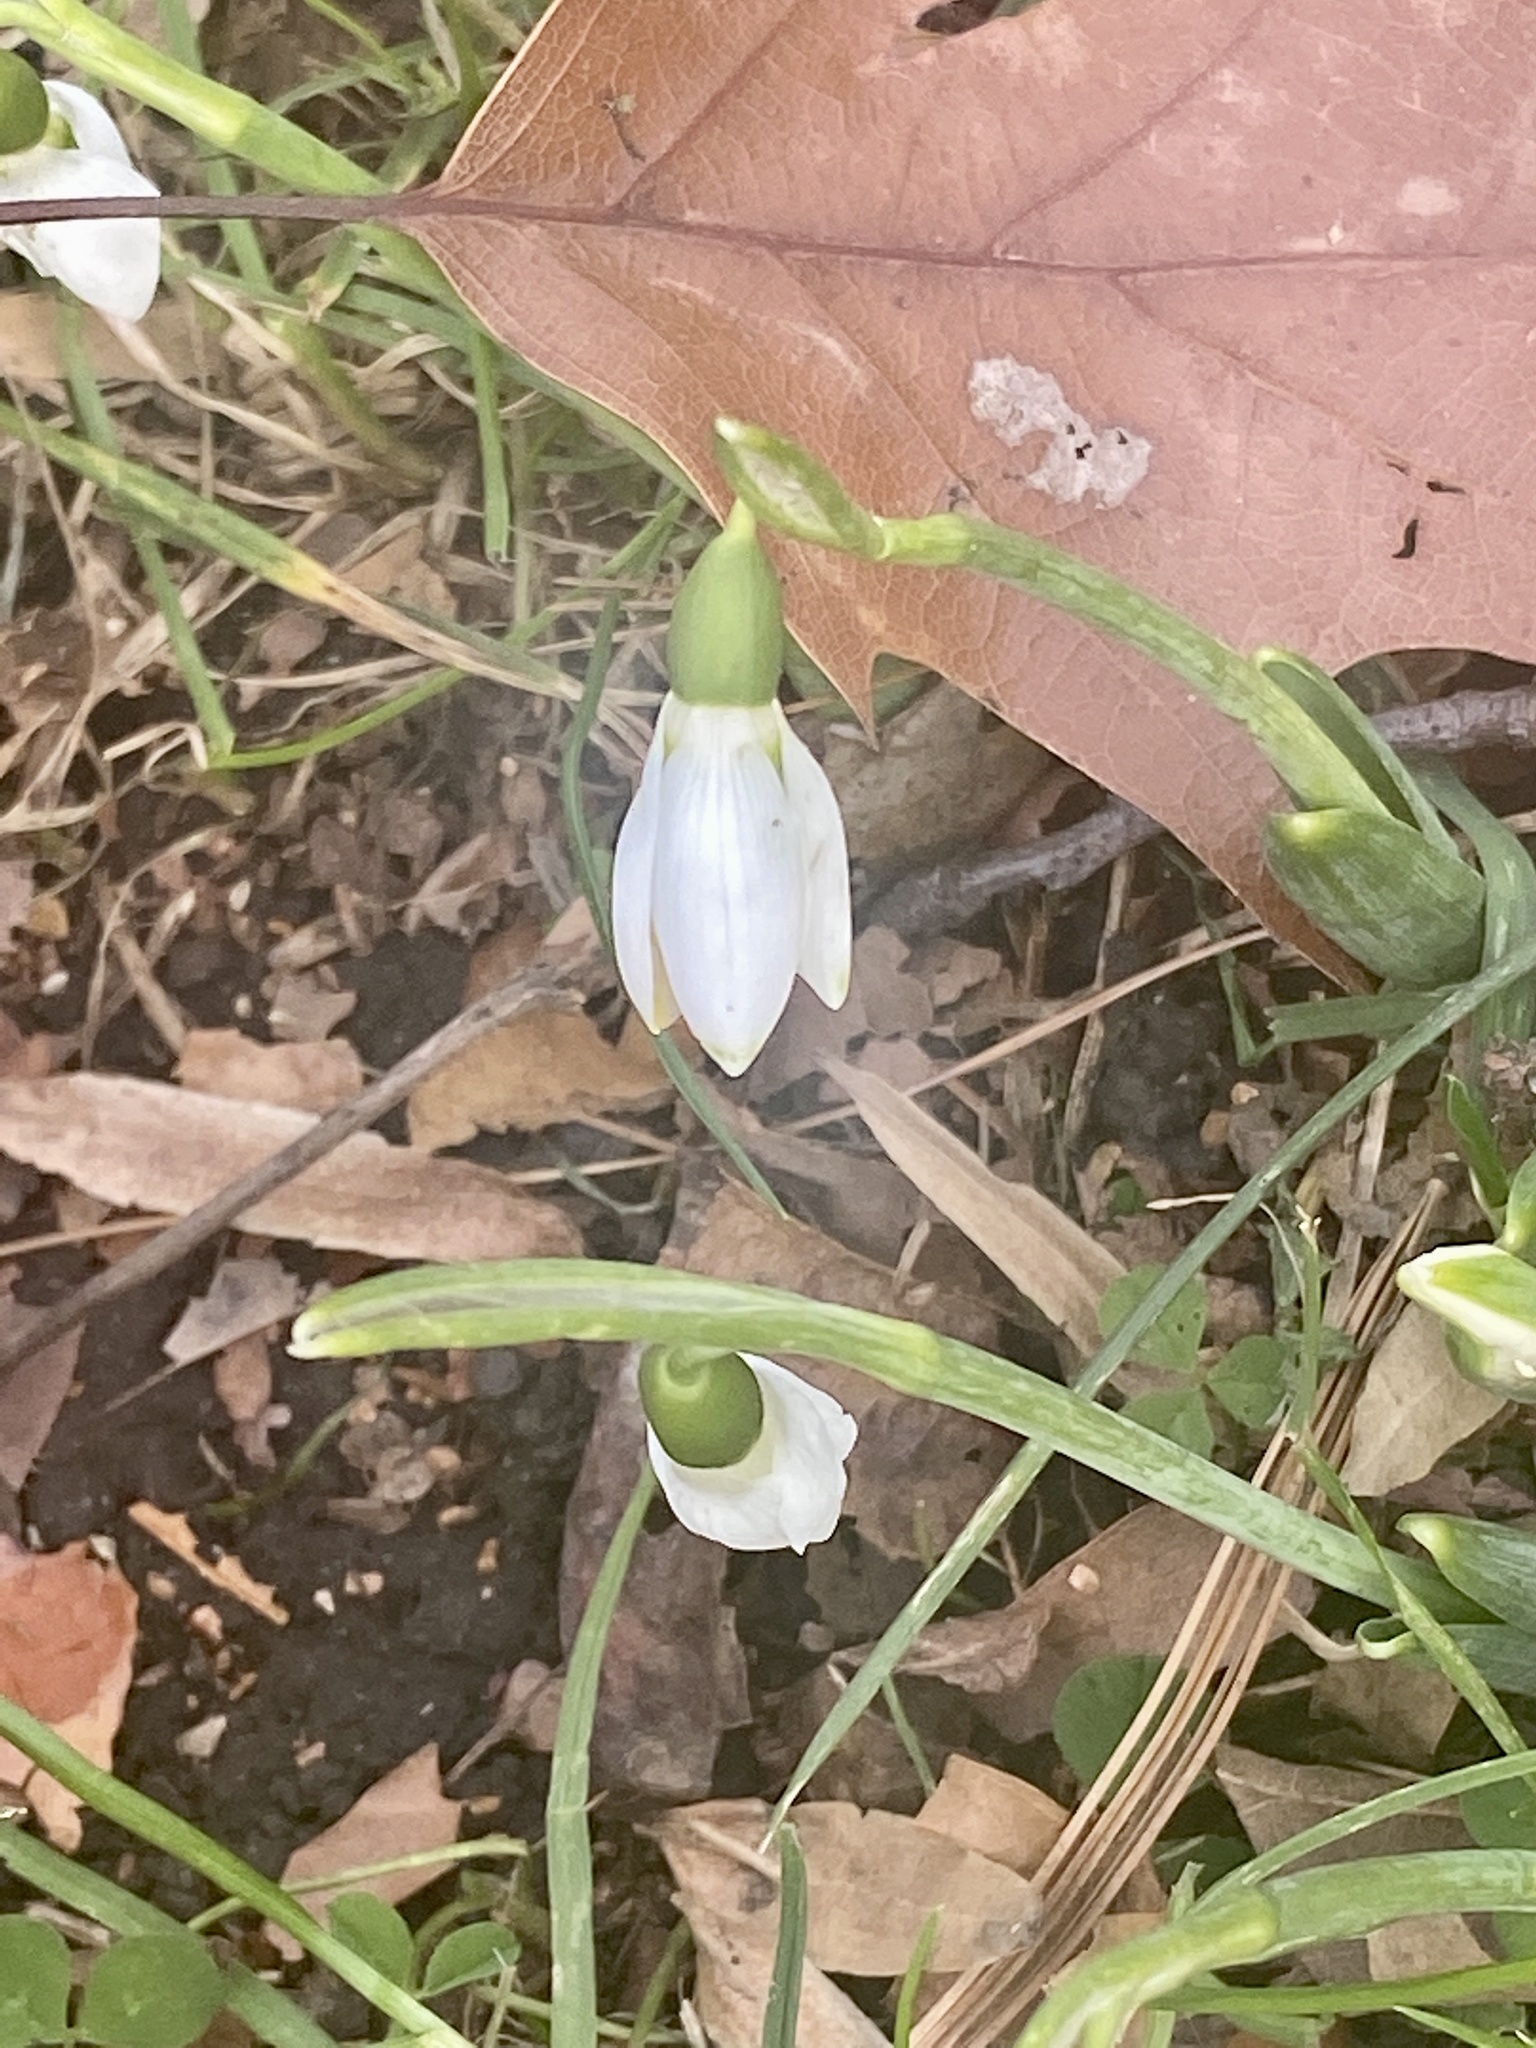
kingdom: Plantae
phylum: Tracheophyta
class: Liliopsida
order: Asparagales
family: Amaryllidaceae
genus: Galanthus
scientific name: Galanthus elwesii
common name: Greater snowdrop
